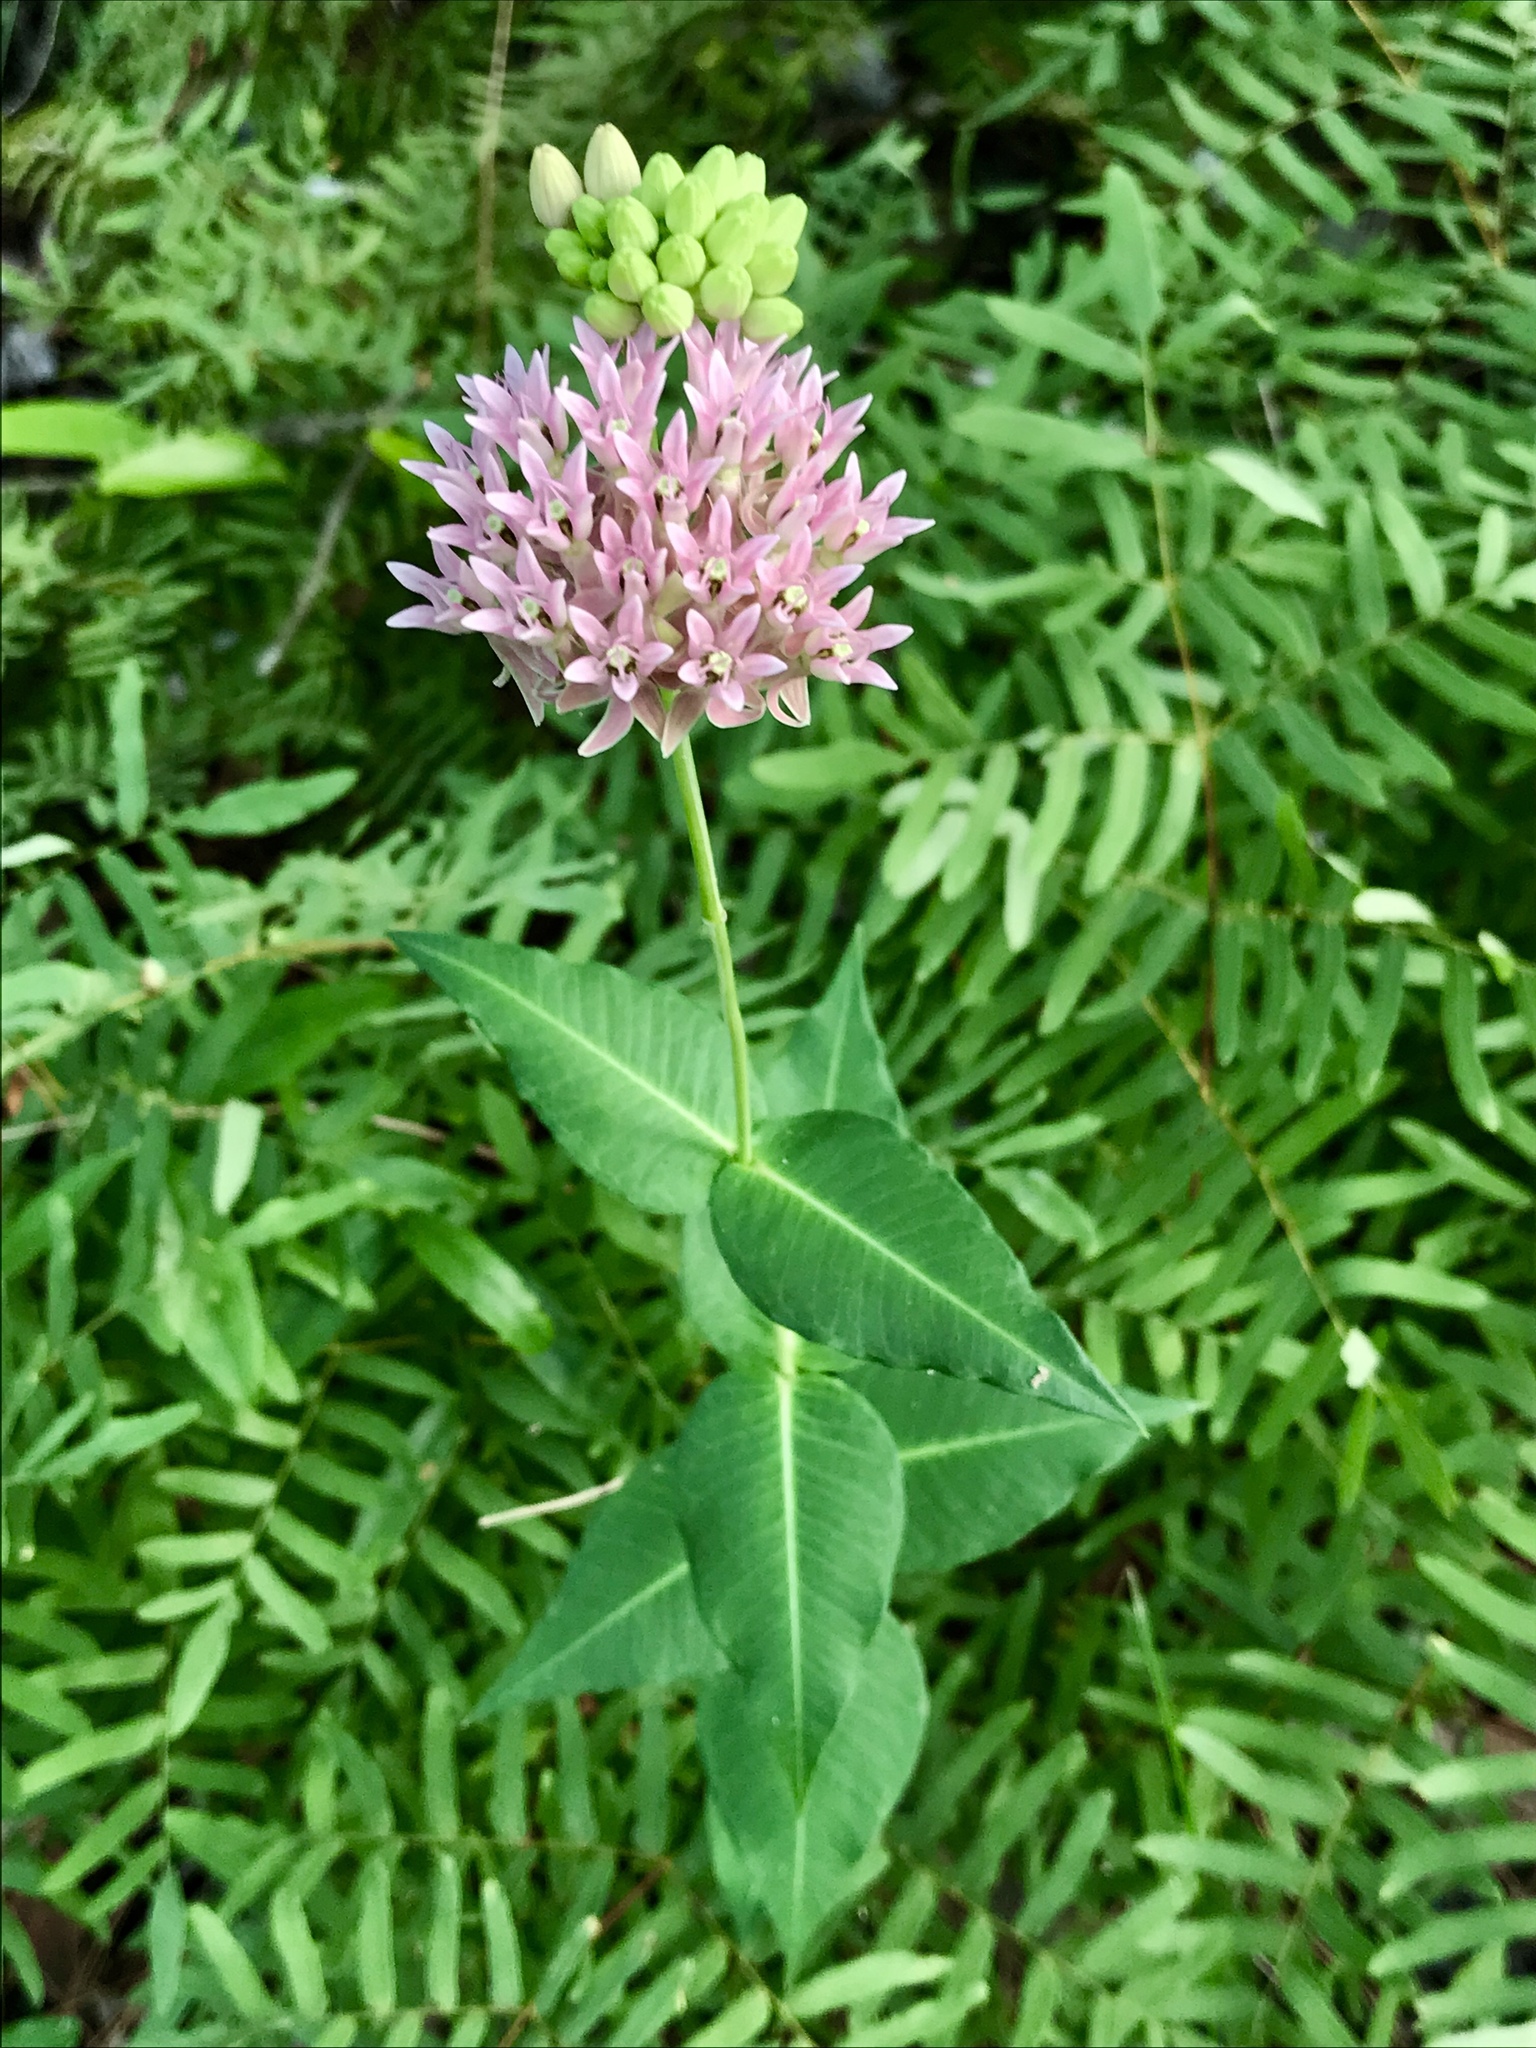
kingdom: Plantae
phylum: Tracheophyta
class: Magnoliopsida
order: Gentianales
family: Apocynaceae
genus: Asclepias
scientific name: Asclepias rubra
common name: Red milkweed
